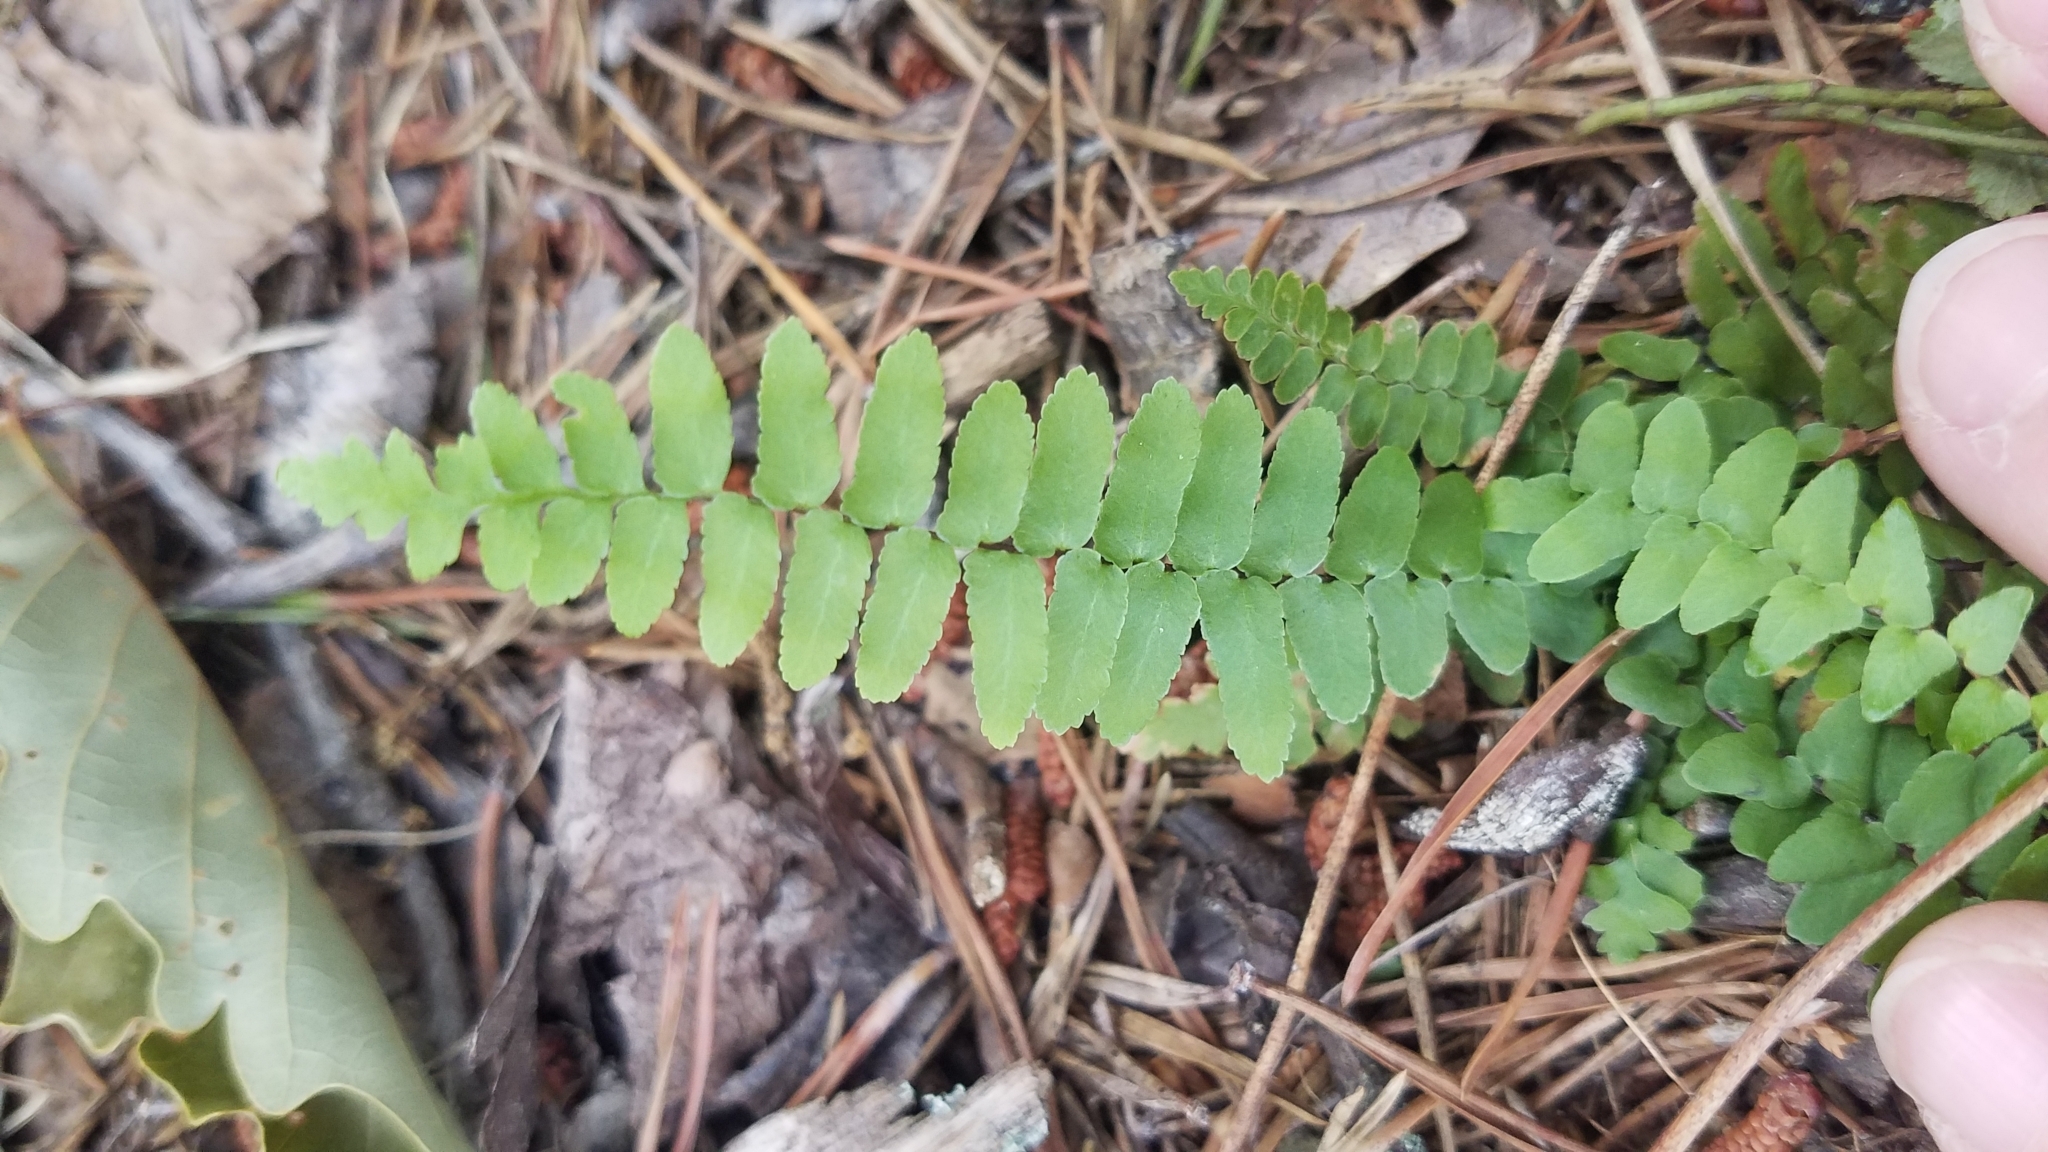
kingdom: Plantae
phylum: Tracheophyta
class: Polypodiopsida
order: Polypodiales
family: Aspleniaceae
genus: Asplenium
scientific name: Asplenium platyneuron
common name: Ebony spleenwort
